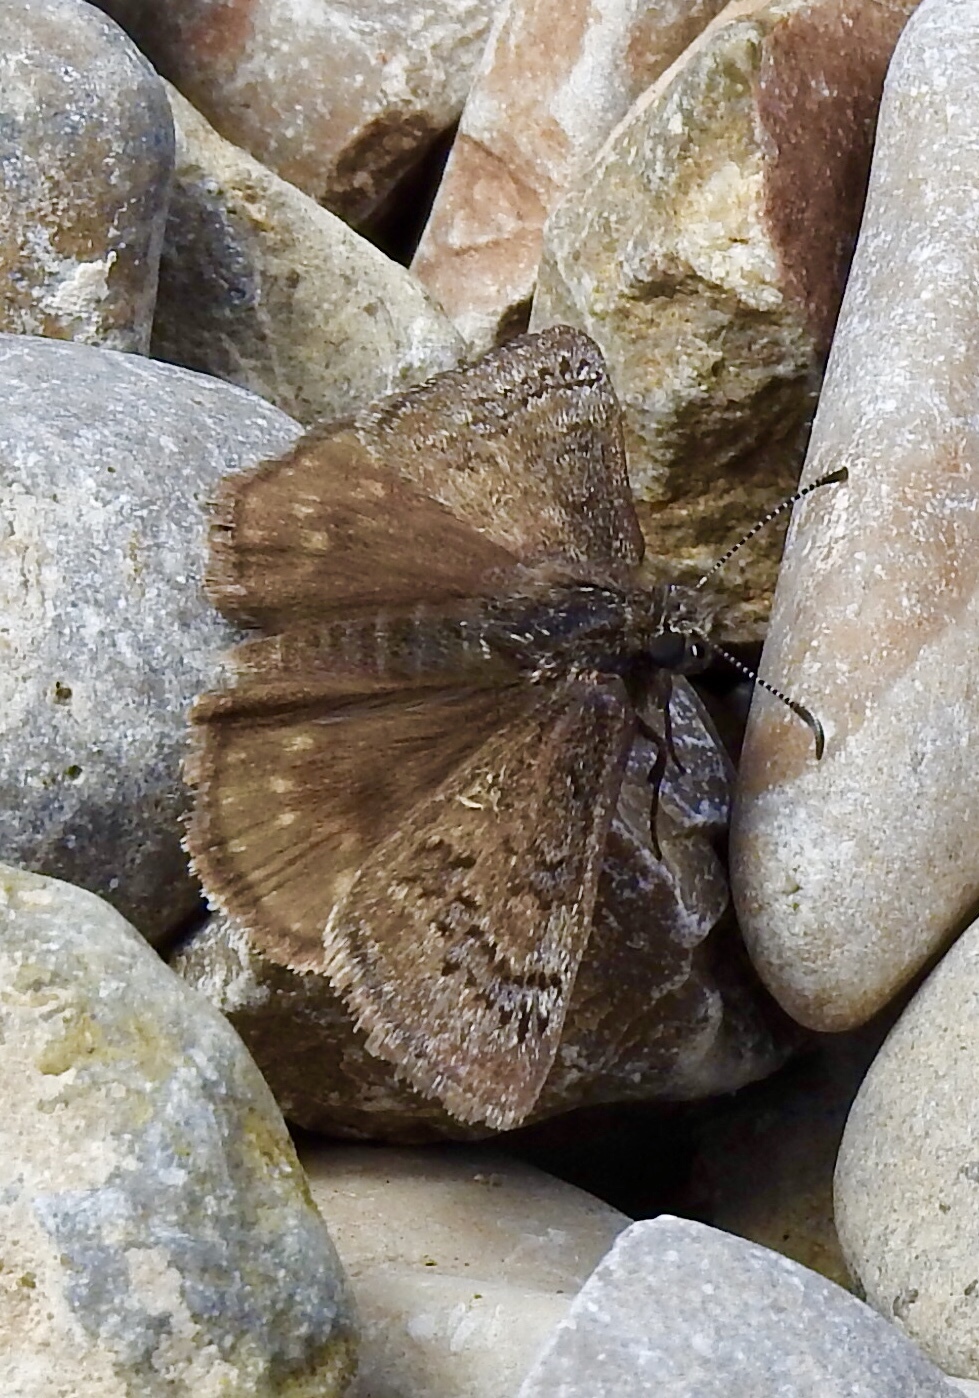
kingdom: Animalia
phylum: Arthropoda
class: Insecta
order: Lepidoptera
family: Hesperiidae
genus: Erynnis
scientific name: Erynnis brizo
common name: Sleepy duskywing
